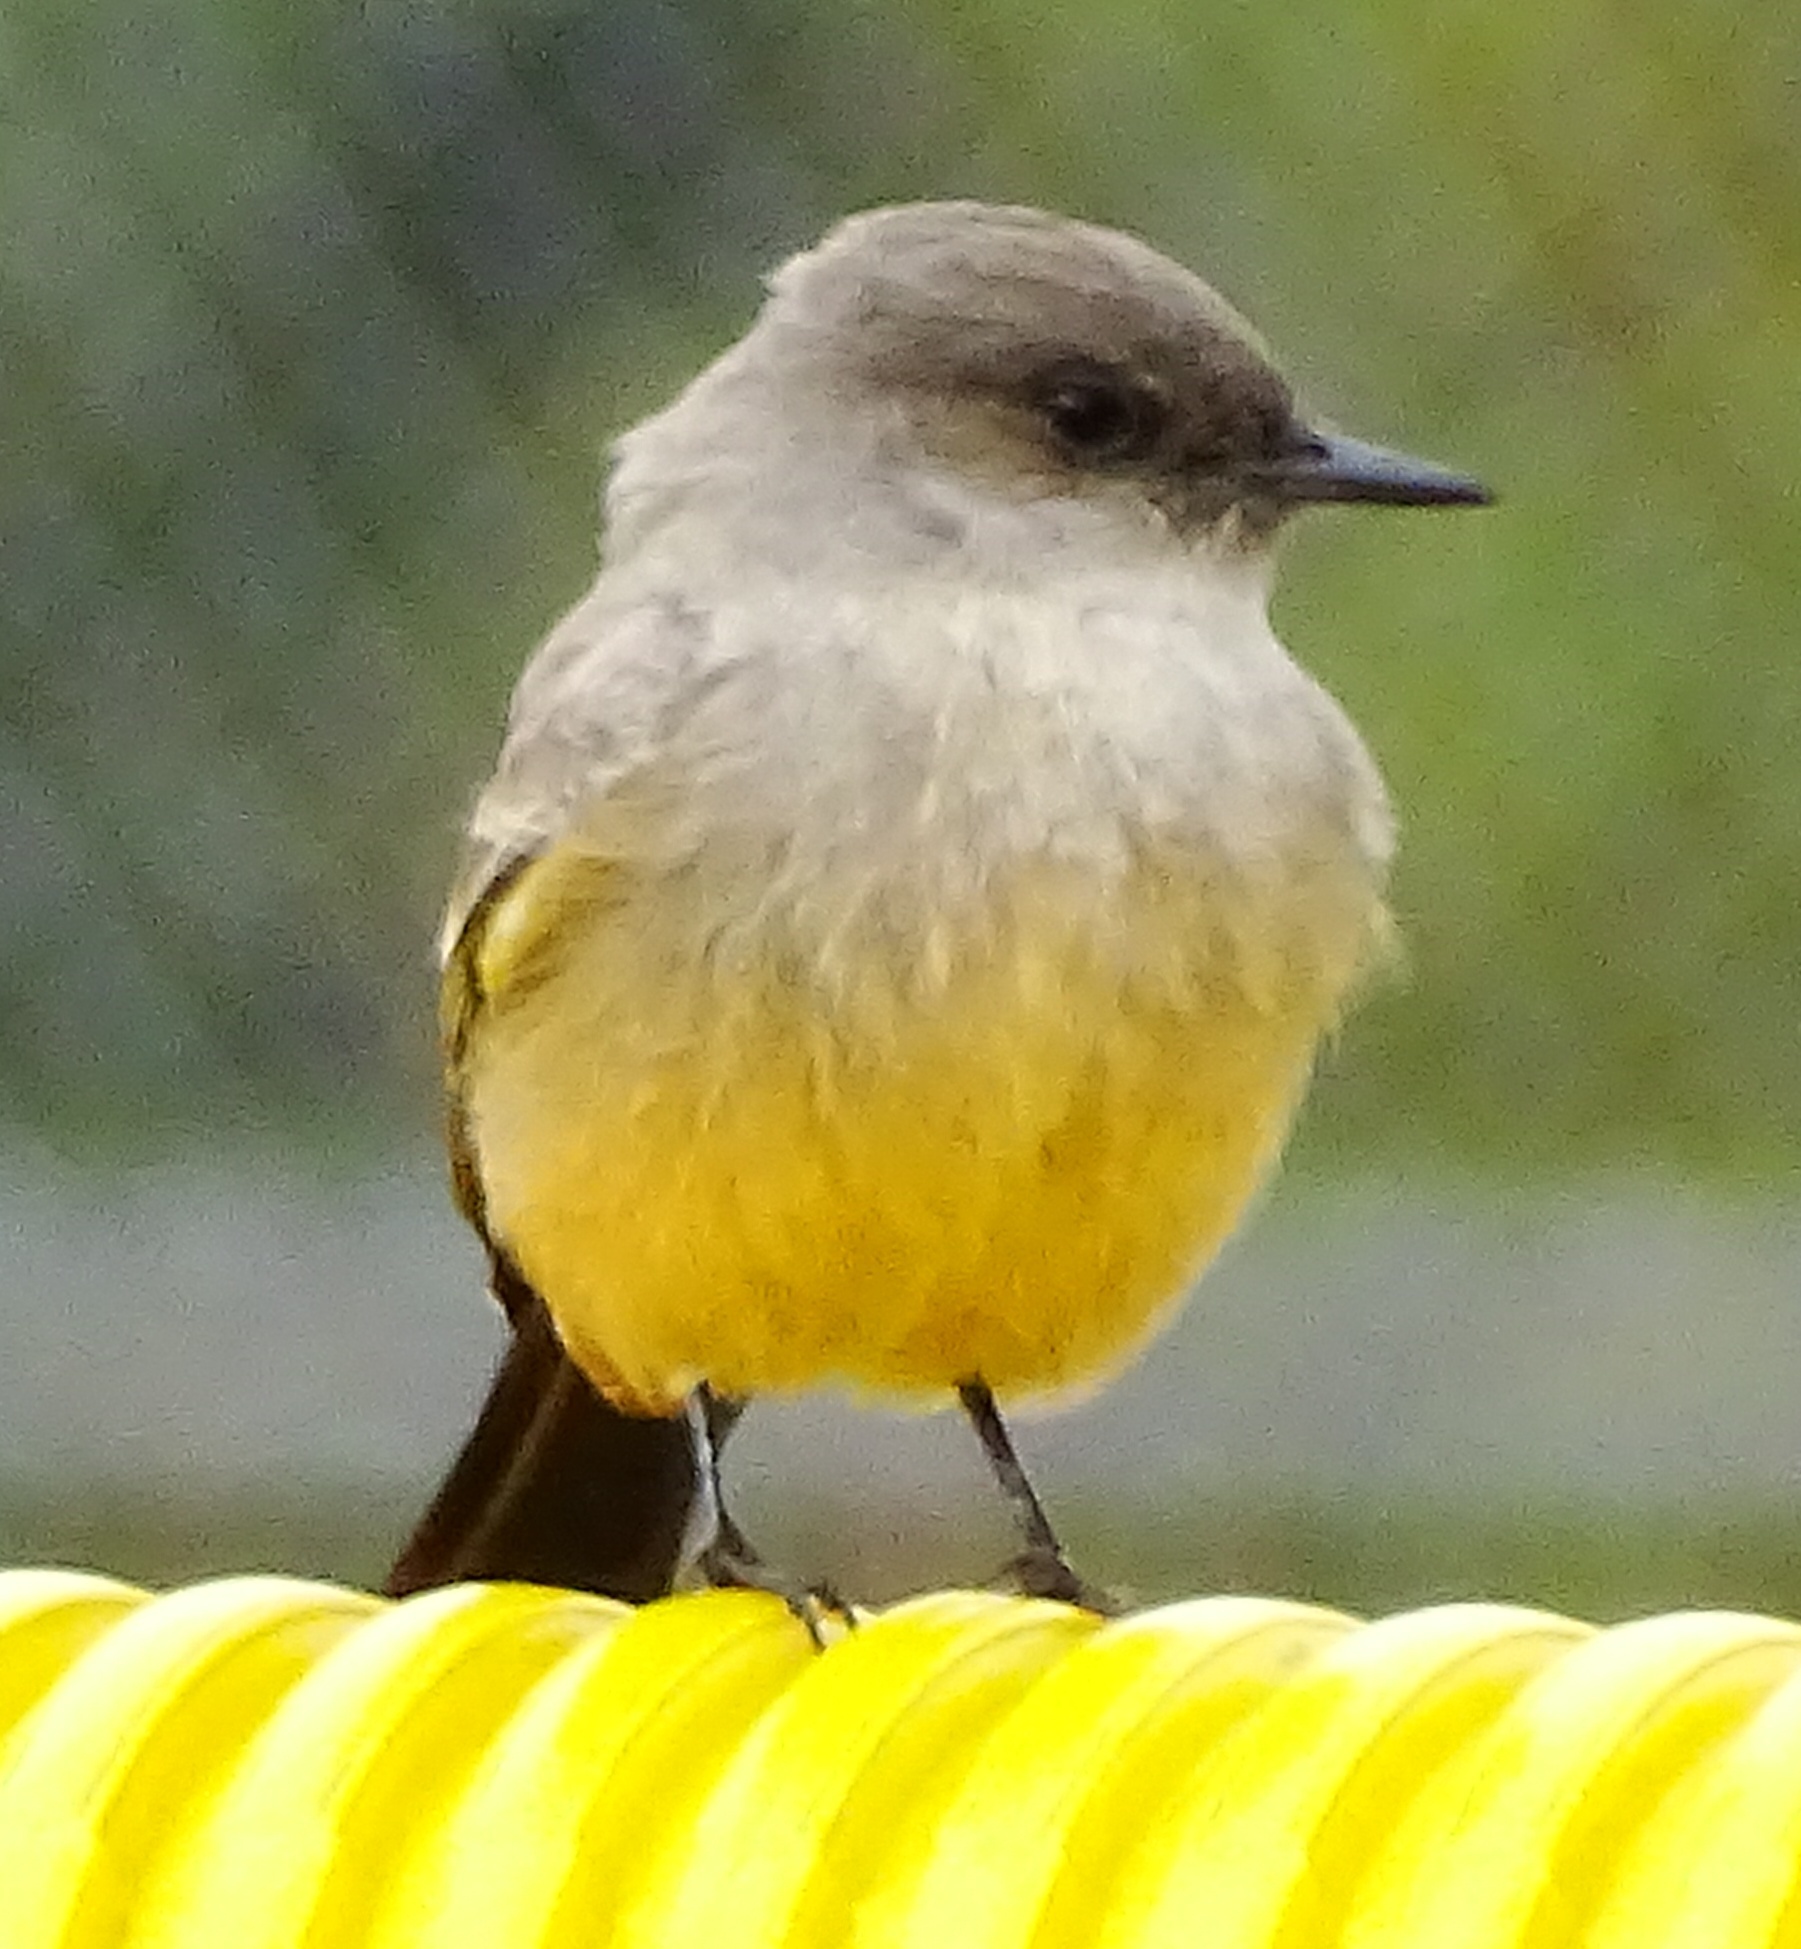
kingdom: Animalia
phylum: Chordata
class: Aves
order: Passeriformes
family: Tyrannidae
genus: Sayornis
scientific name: Sayornis saya
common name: Say's phoebe
